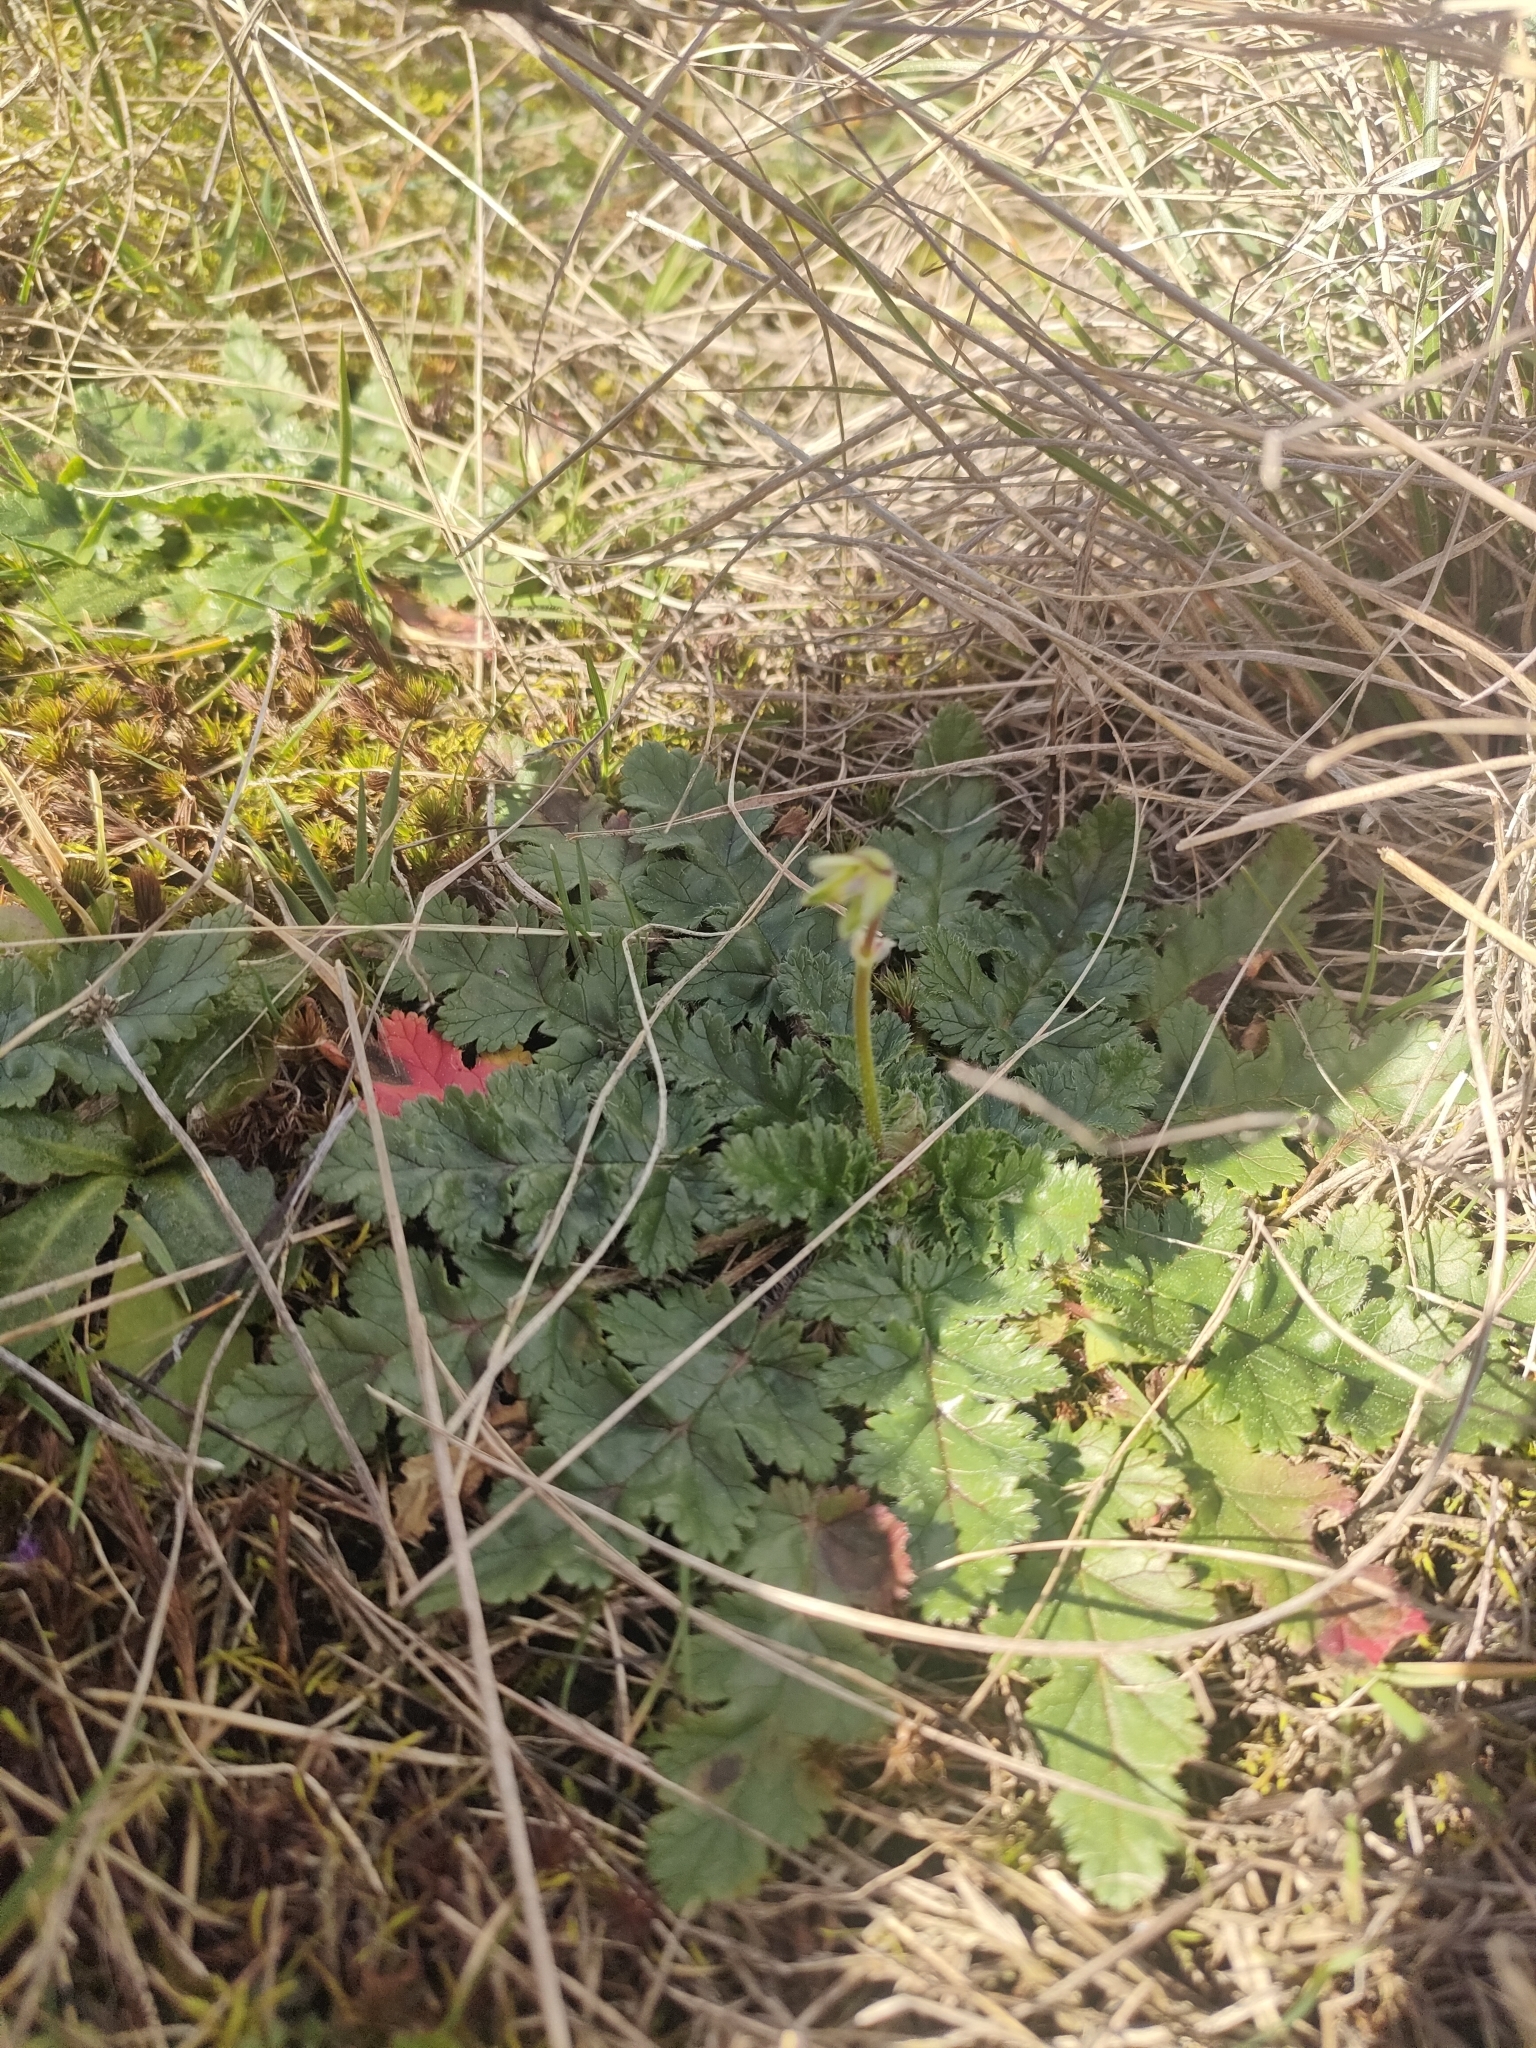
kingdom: Plantae
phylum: Tracheophyta
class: Magnoliopsida
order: Geraniales
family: Geraniaceae
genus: Erodium
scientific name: Erodium botrys
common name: Mediterranean stork's-bill
